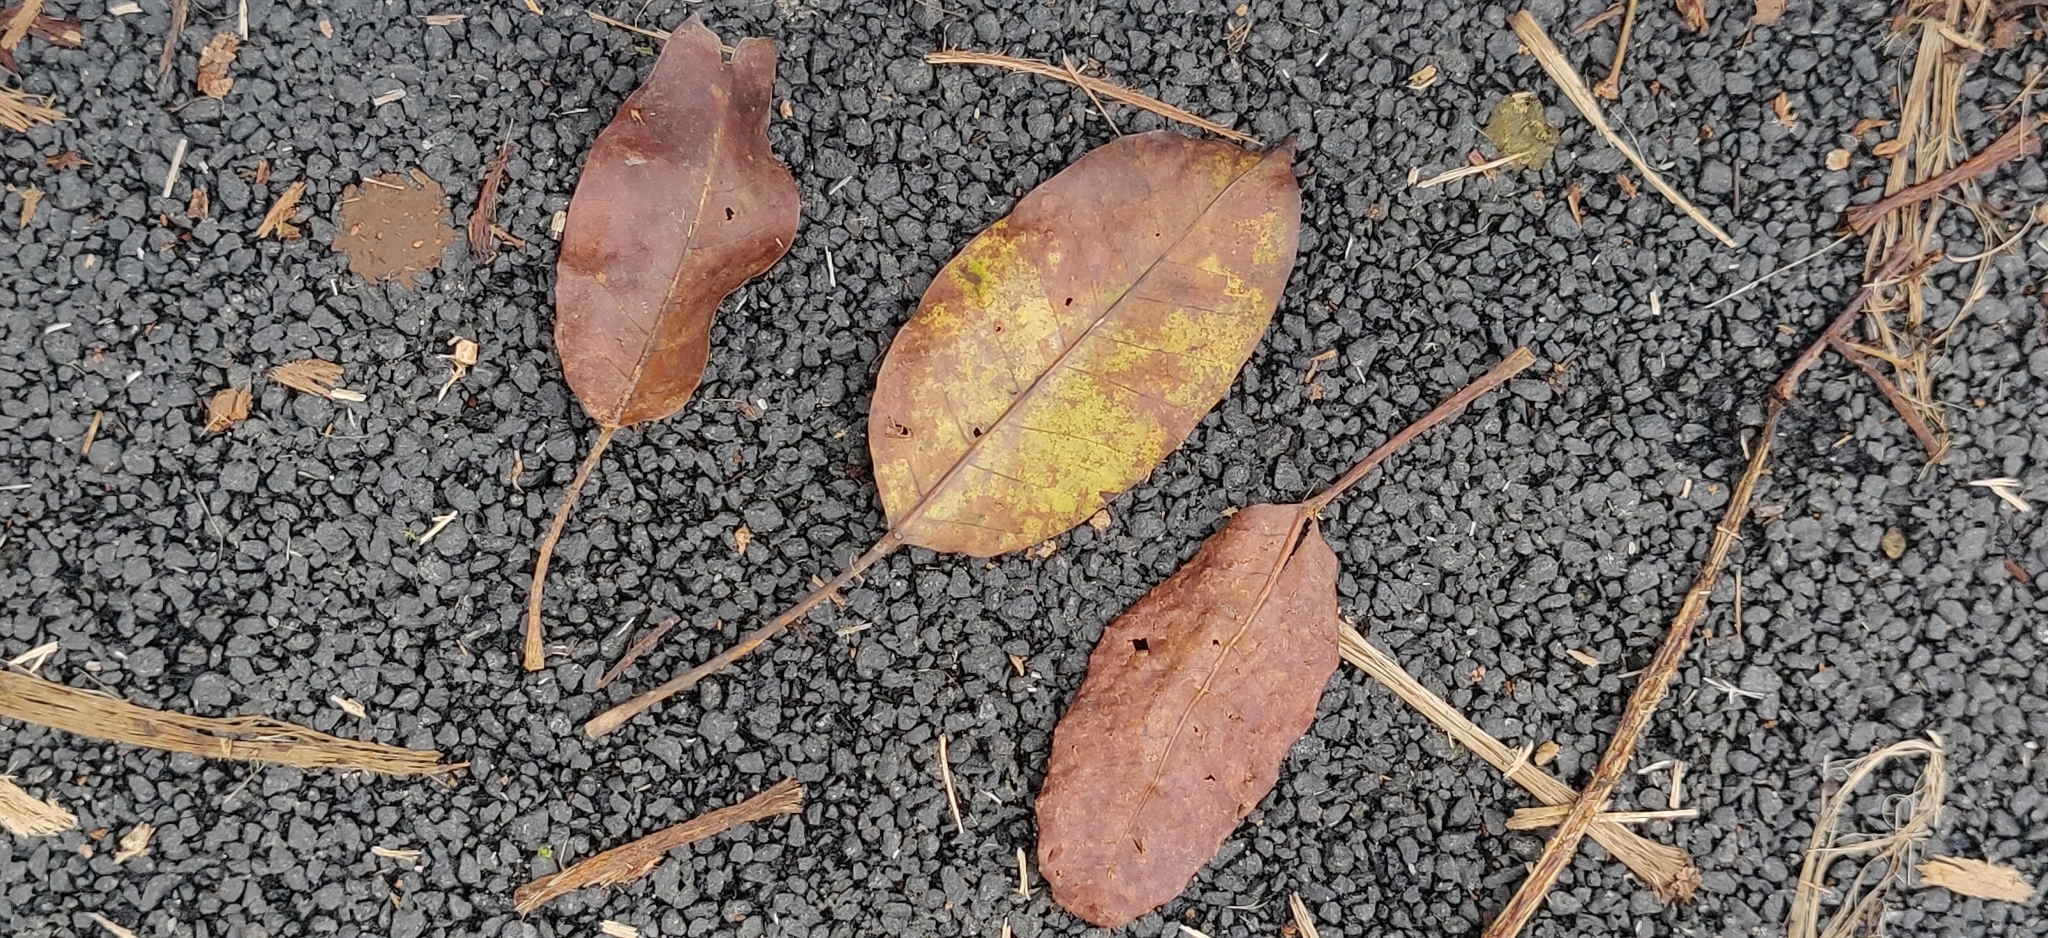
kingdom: Plantae
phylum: Tracheophyta
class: Magnoliopsida
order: Rosales
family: Moraceae
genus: Ficus
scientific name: Ficus superba
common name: Cedar fig
